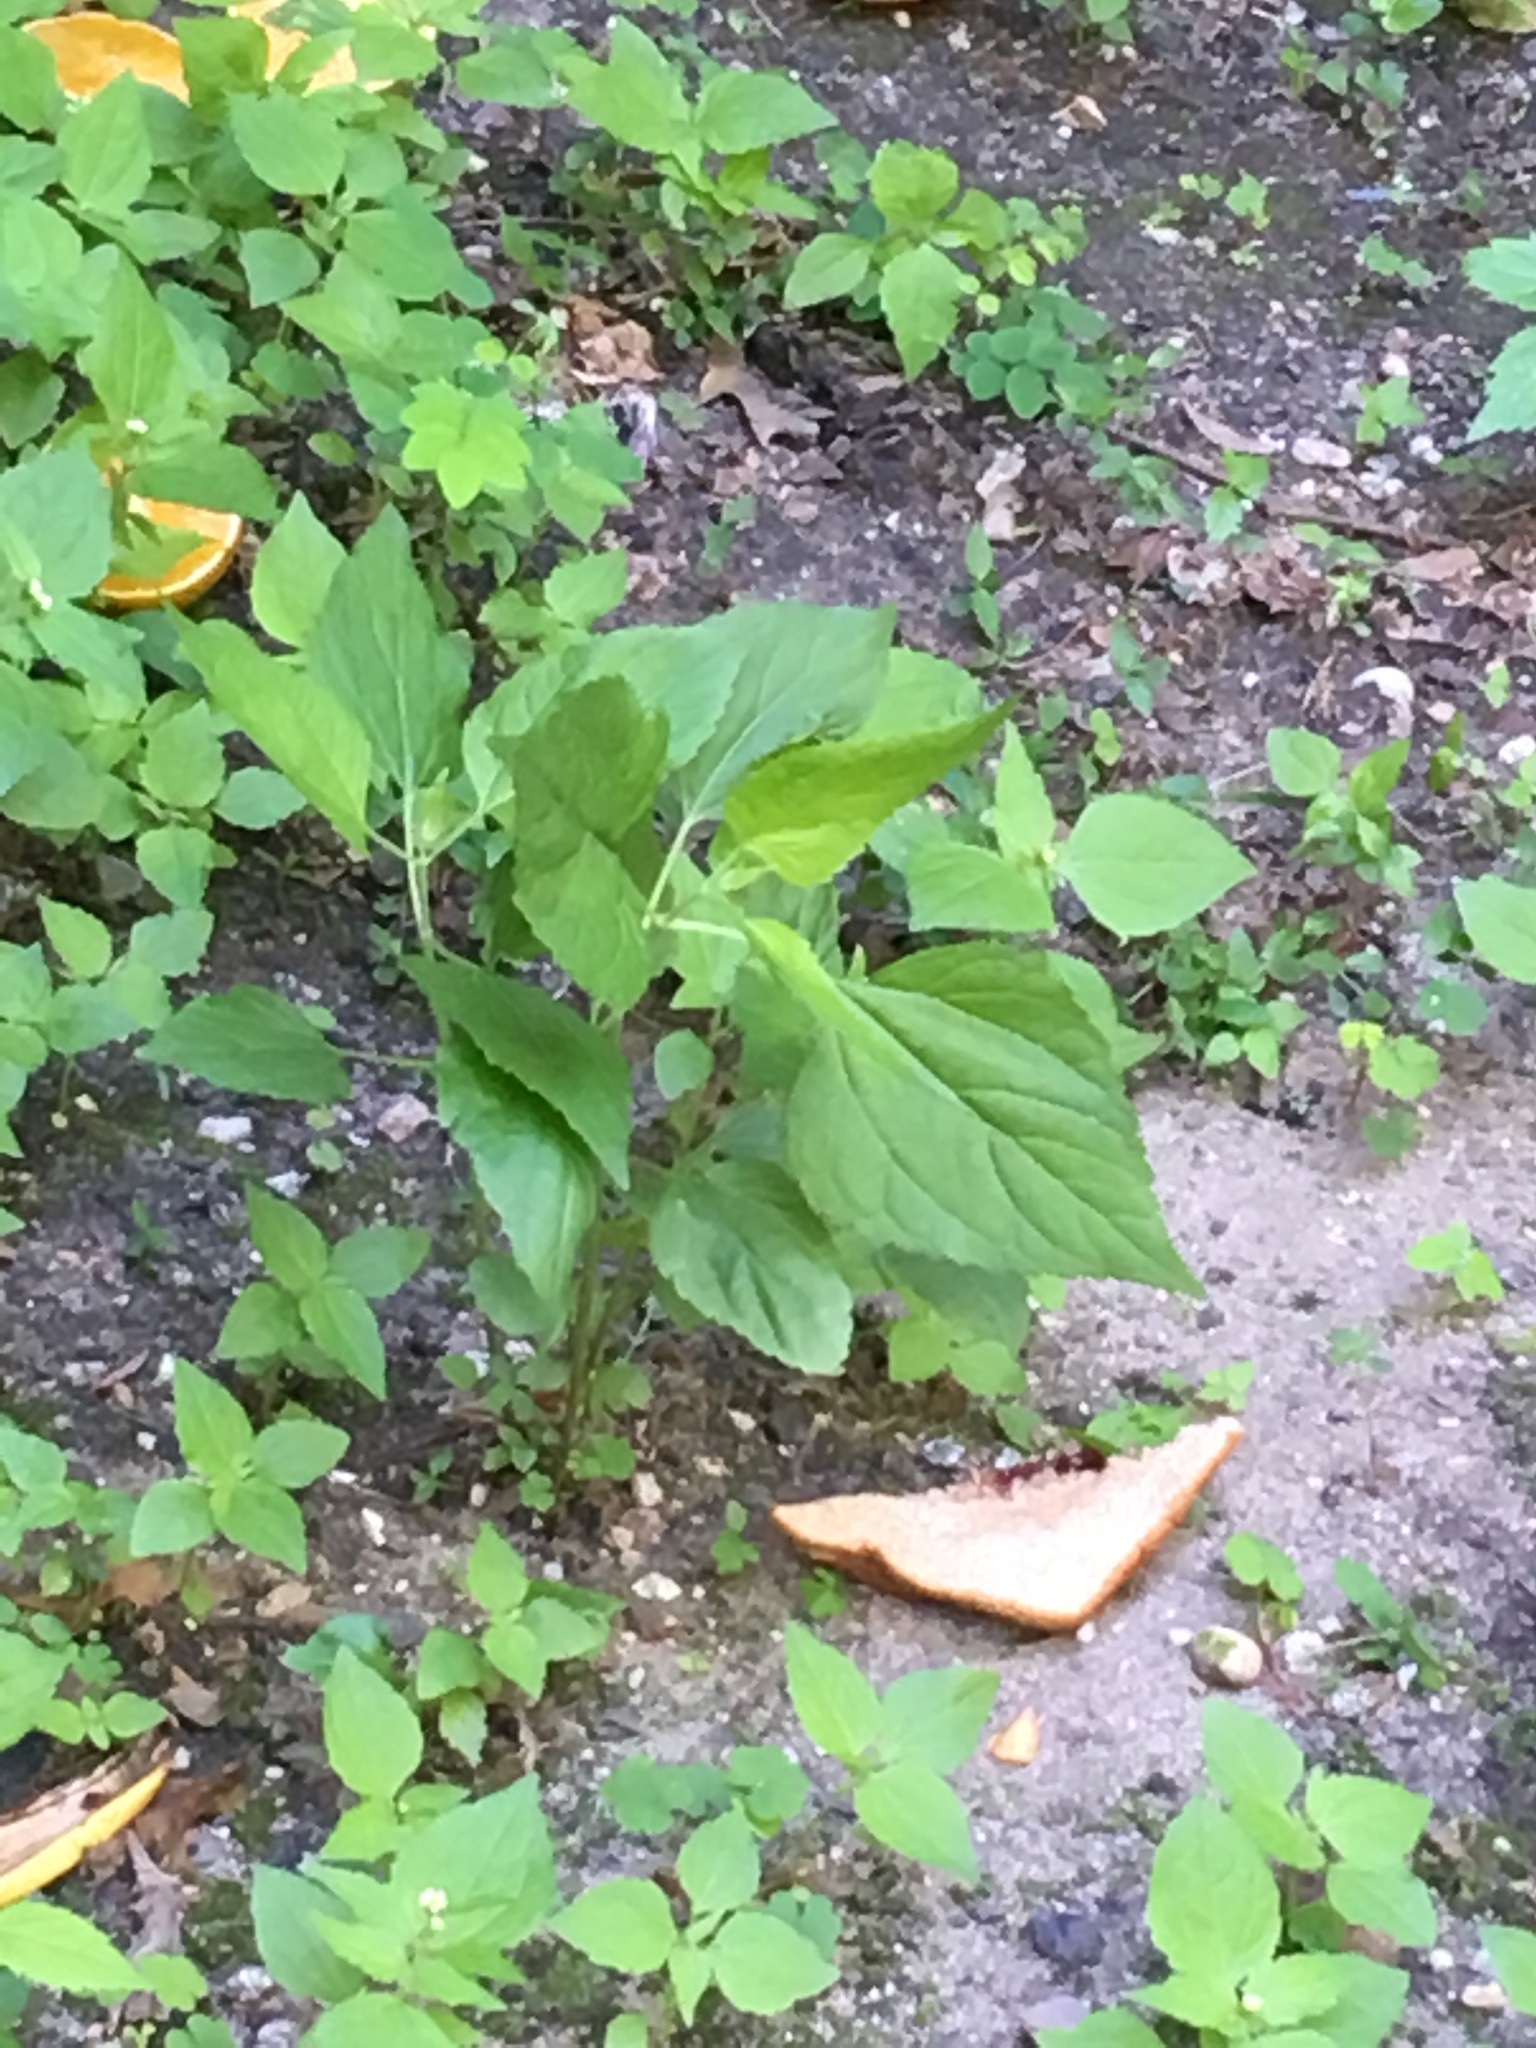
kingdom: Plantae
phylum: Tracheophyta
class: Magnoliopsida
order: Asterales
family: Asteraceae
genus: Ageratina
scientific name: Ageratina altissima
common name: White snakeroot
